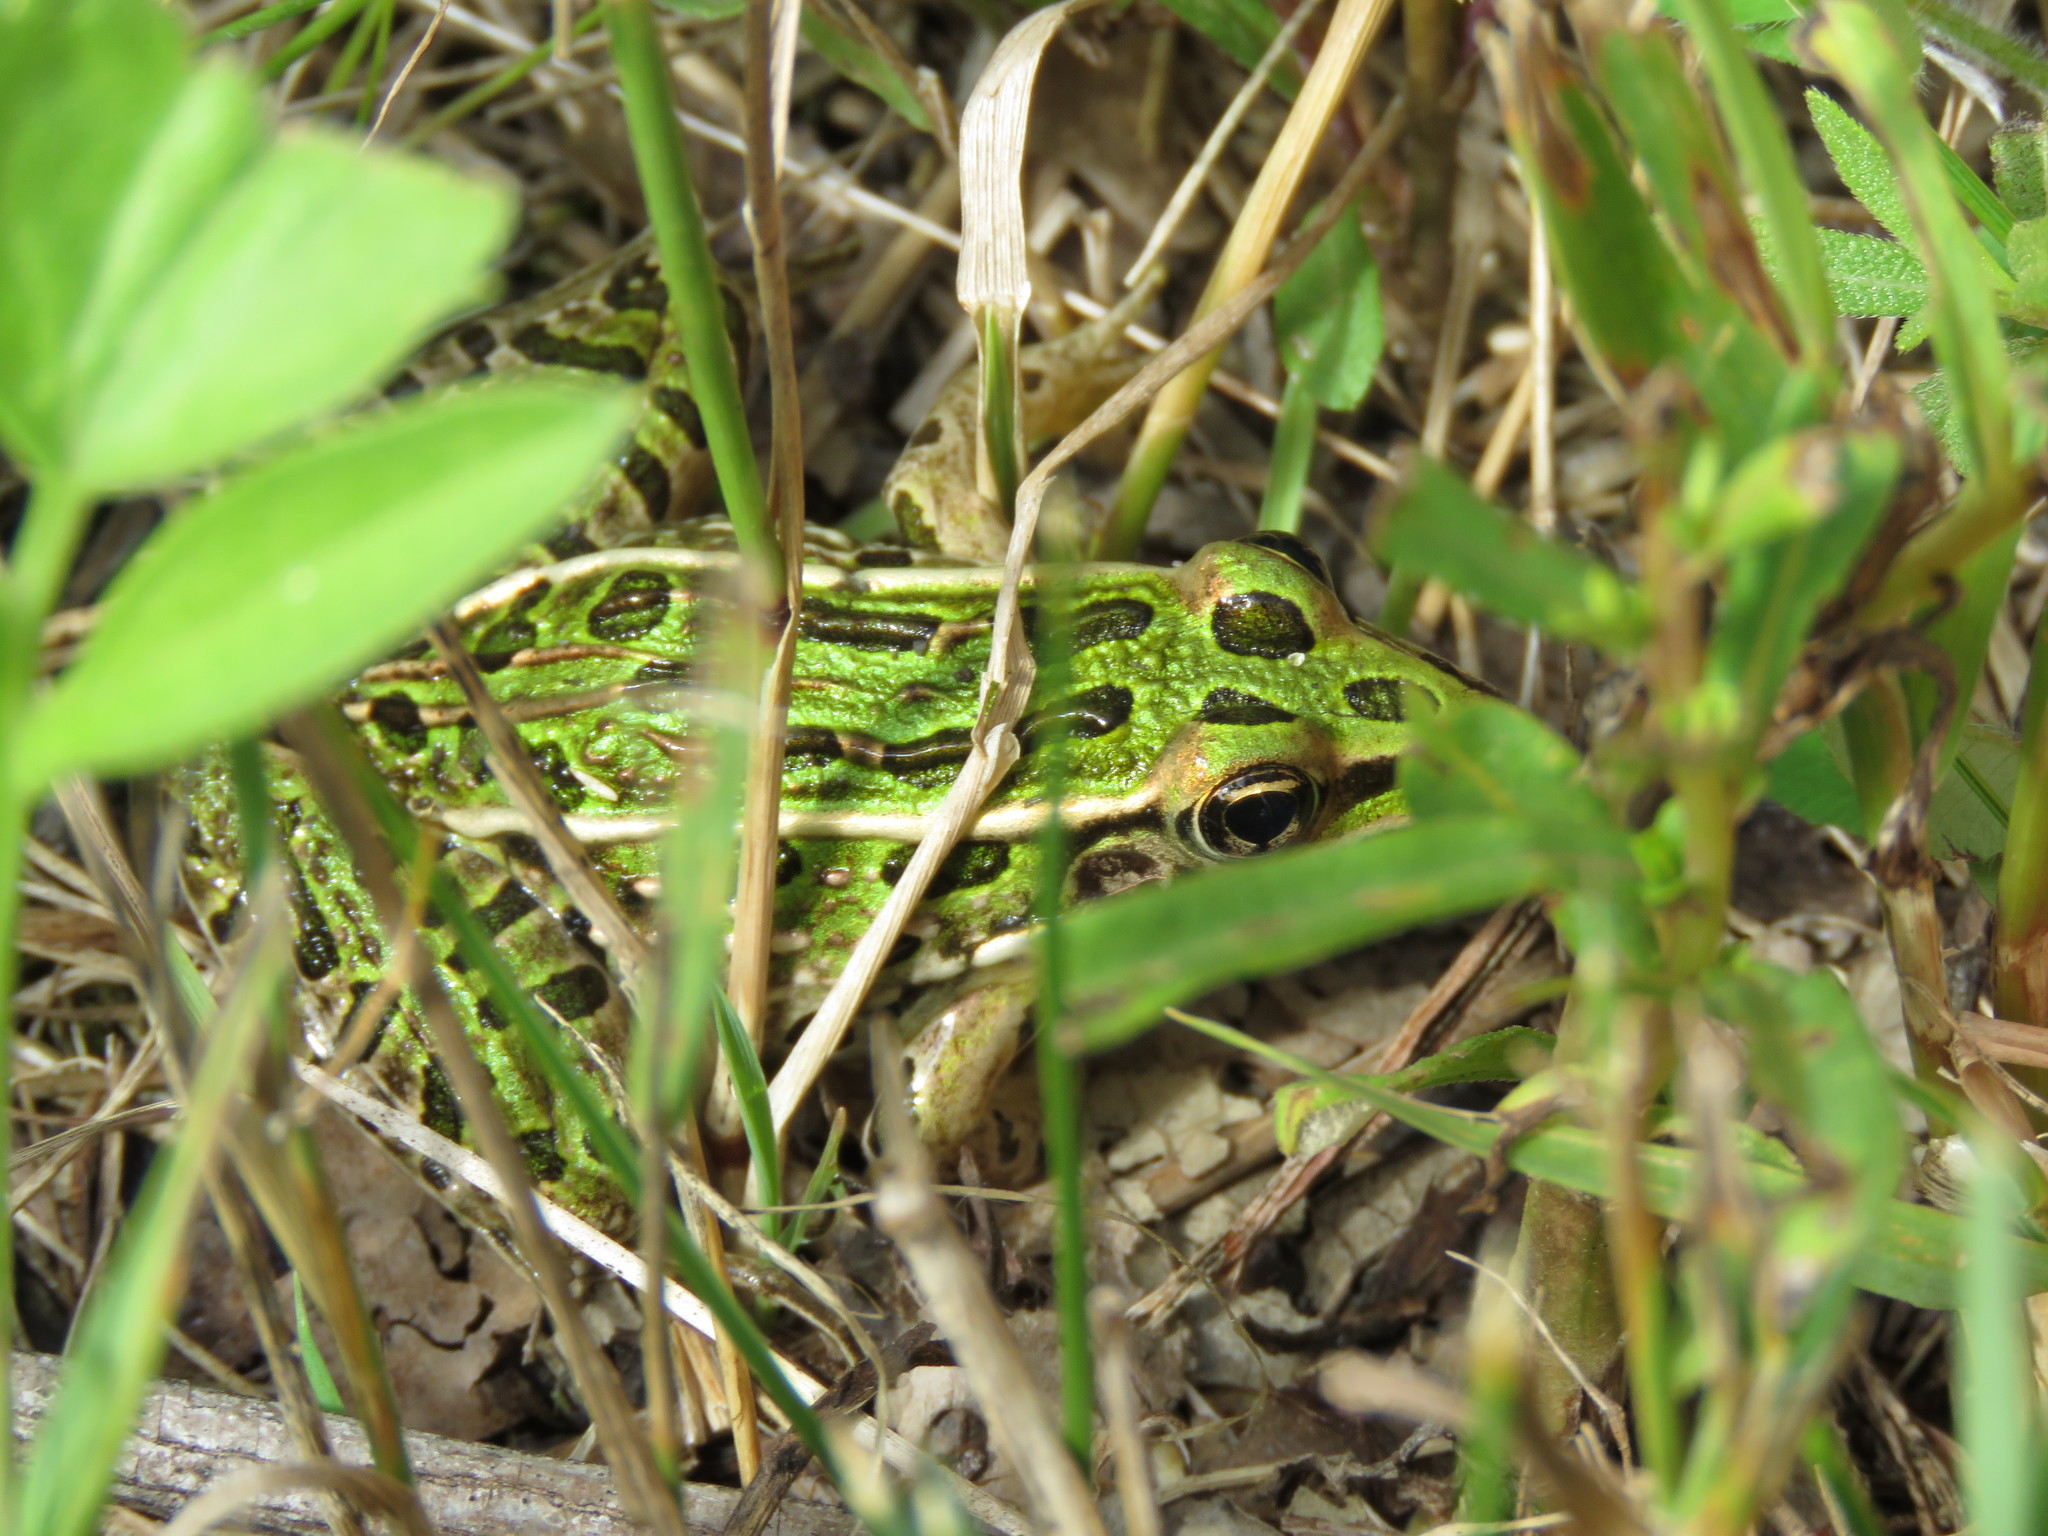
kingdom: Animalia
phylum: Chordata
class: Amphibia
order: Anura
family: Ranidae
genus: Lithobates
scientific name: Lithobates pipiens
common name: Northern leopard frog
